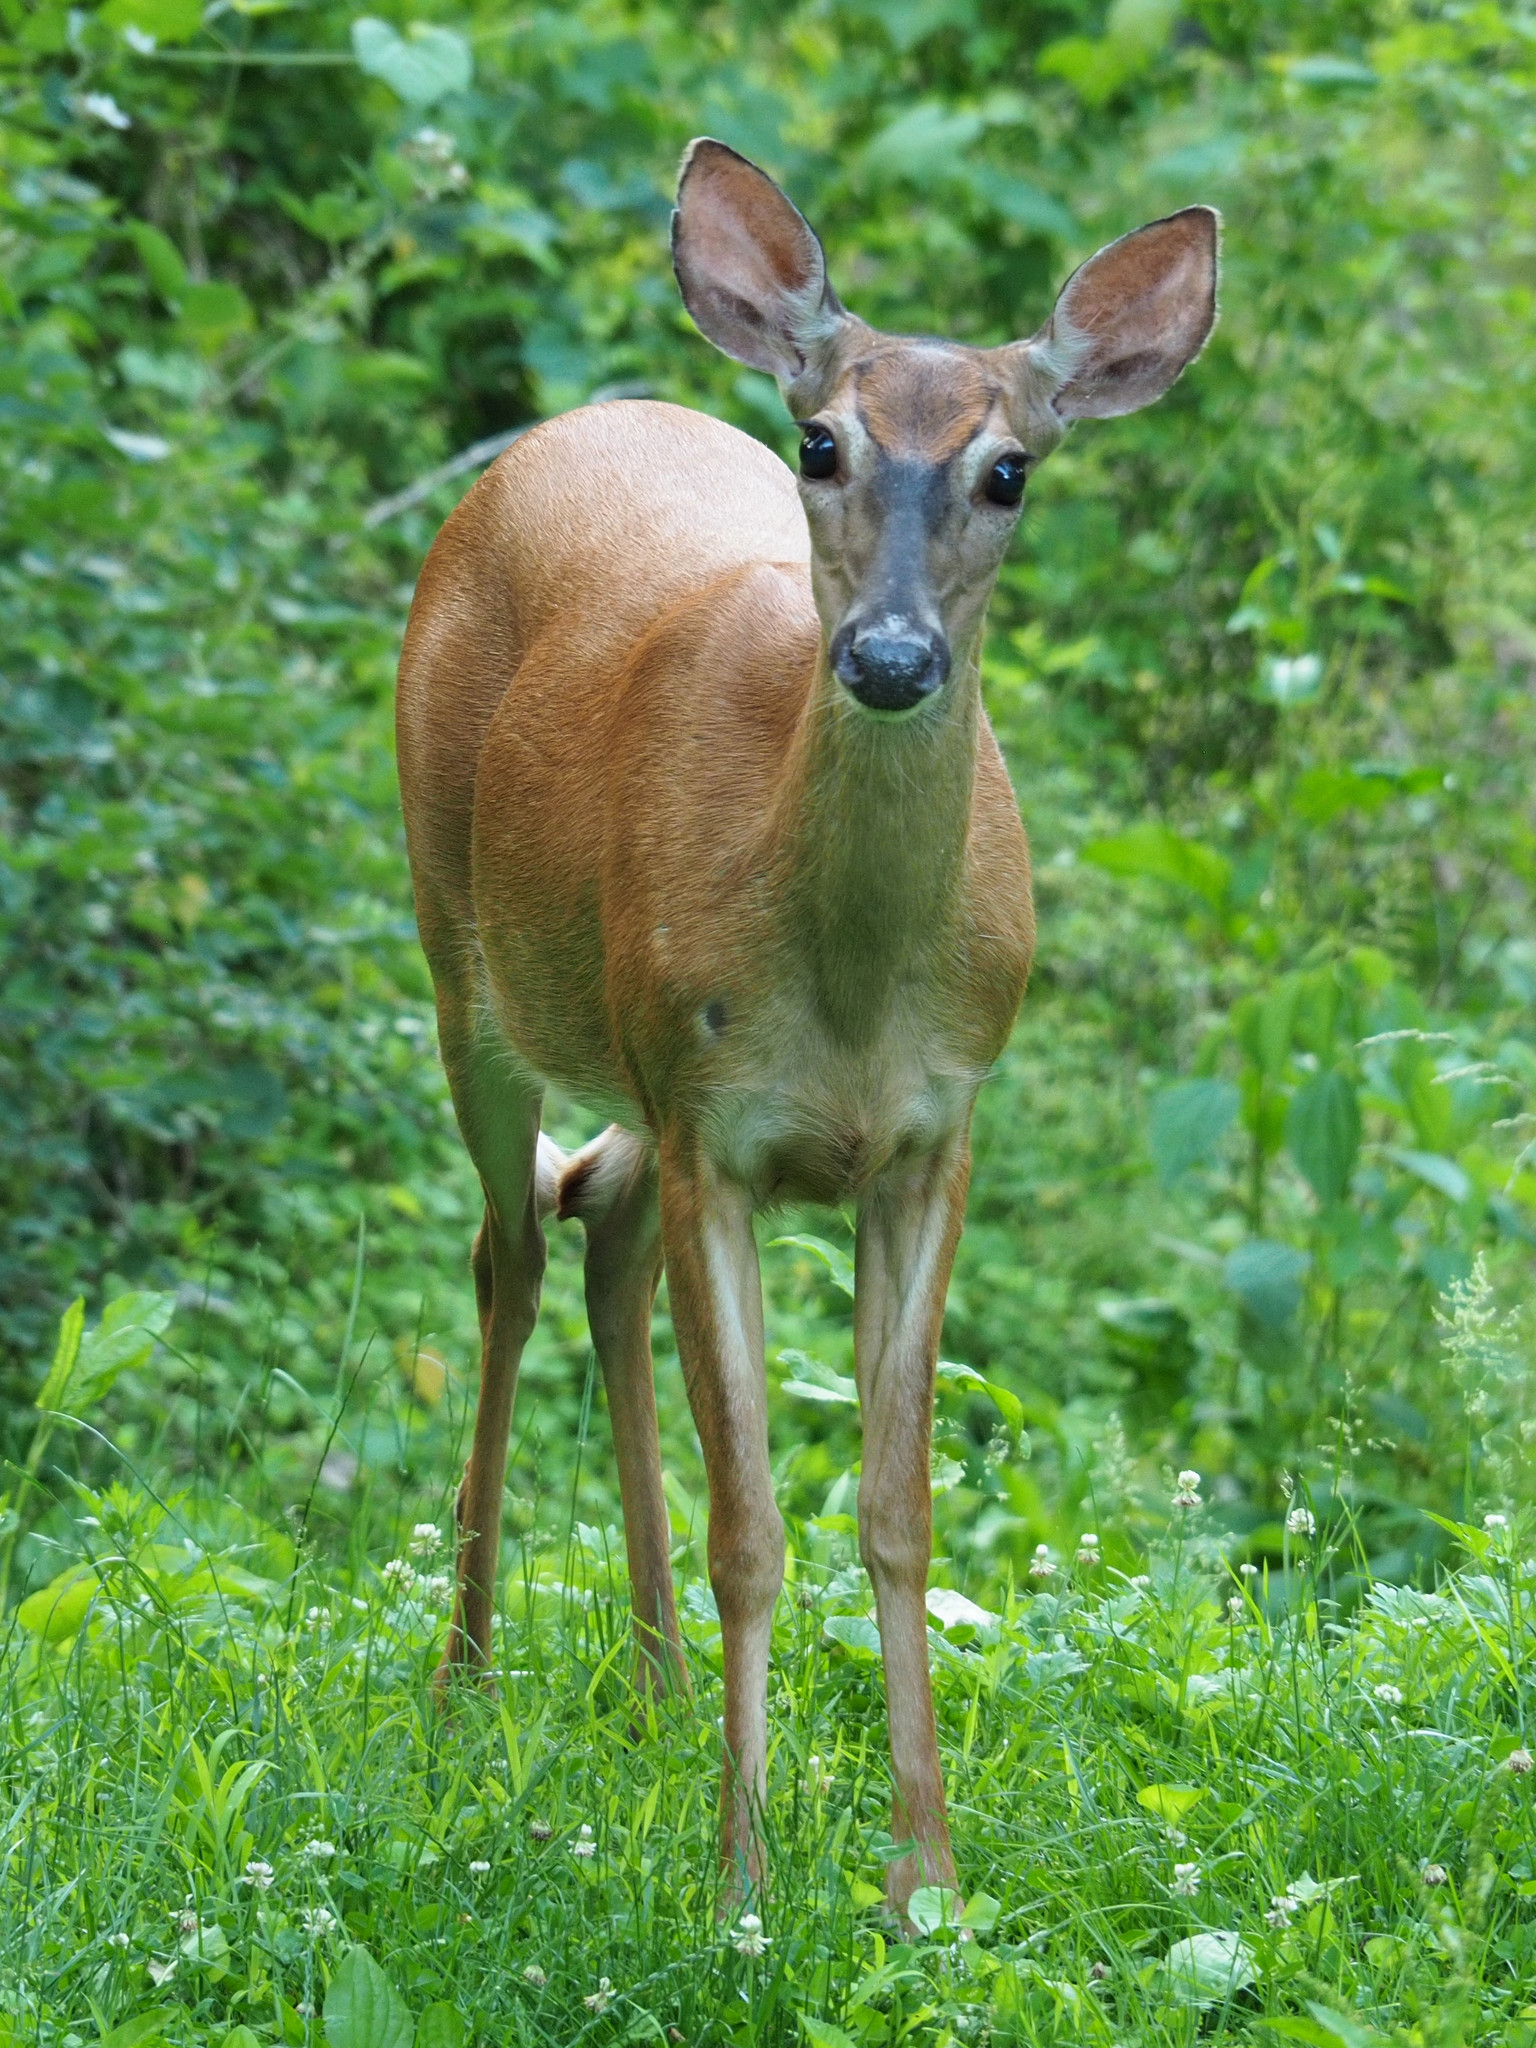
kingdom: Animalia
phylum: Chordata
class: Mammalia
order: Artiodactyla
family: Cervidae
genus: Odocoileus
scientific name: Odocoileus virginianus
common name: White-tailed deer
